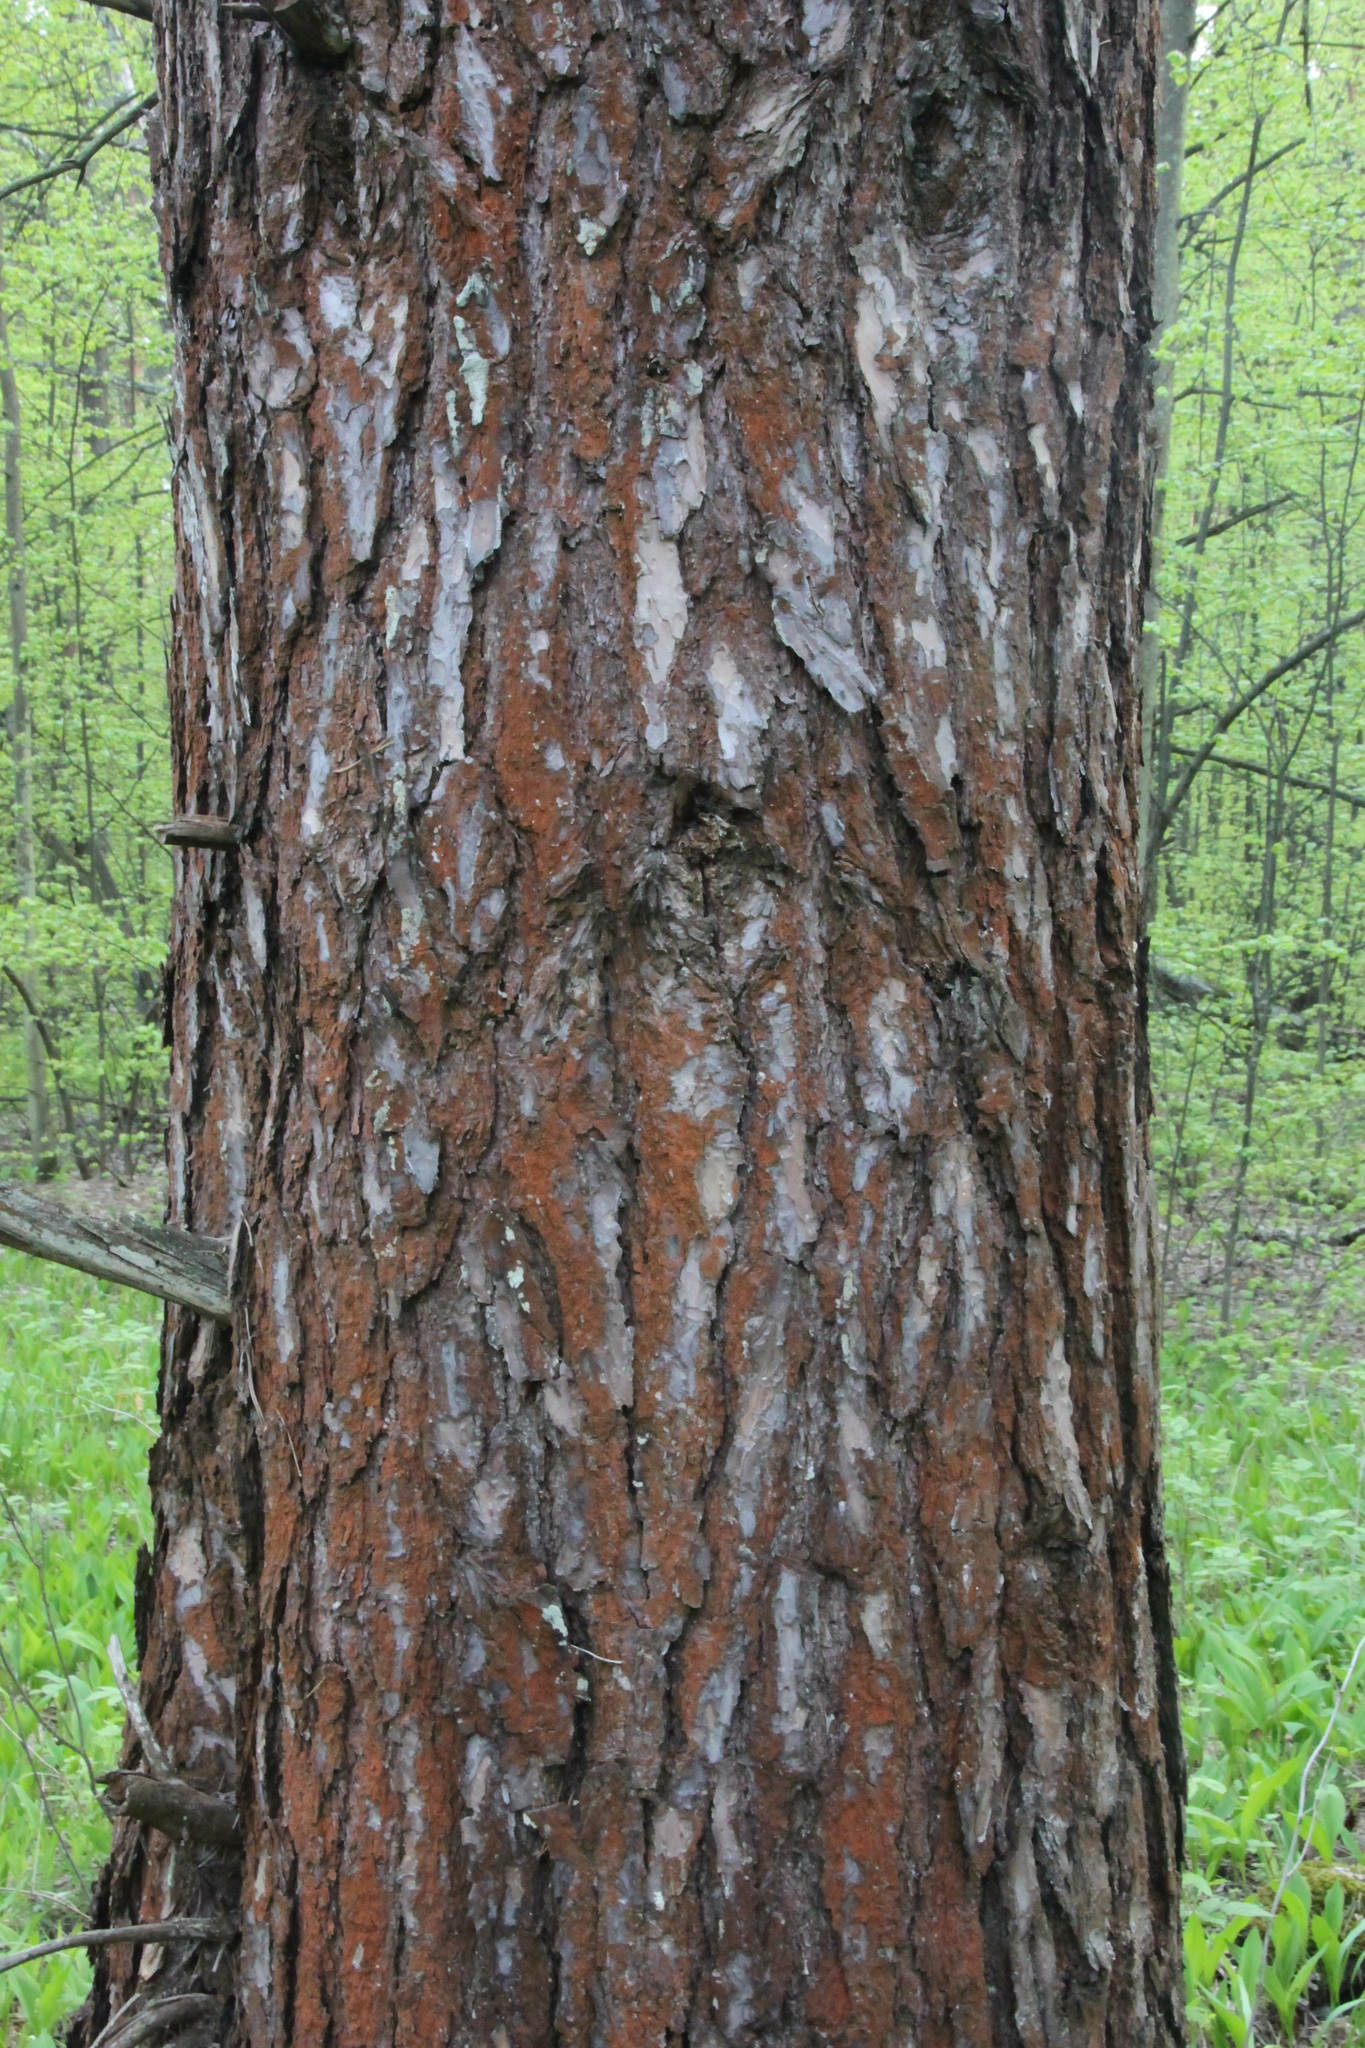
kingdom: Plantae
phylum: Tracheophyta
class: Pinopsida
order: Pinales
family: Pinaceae
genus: Pinus
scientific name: Pinus sylvestris
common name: Scots pine
